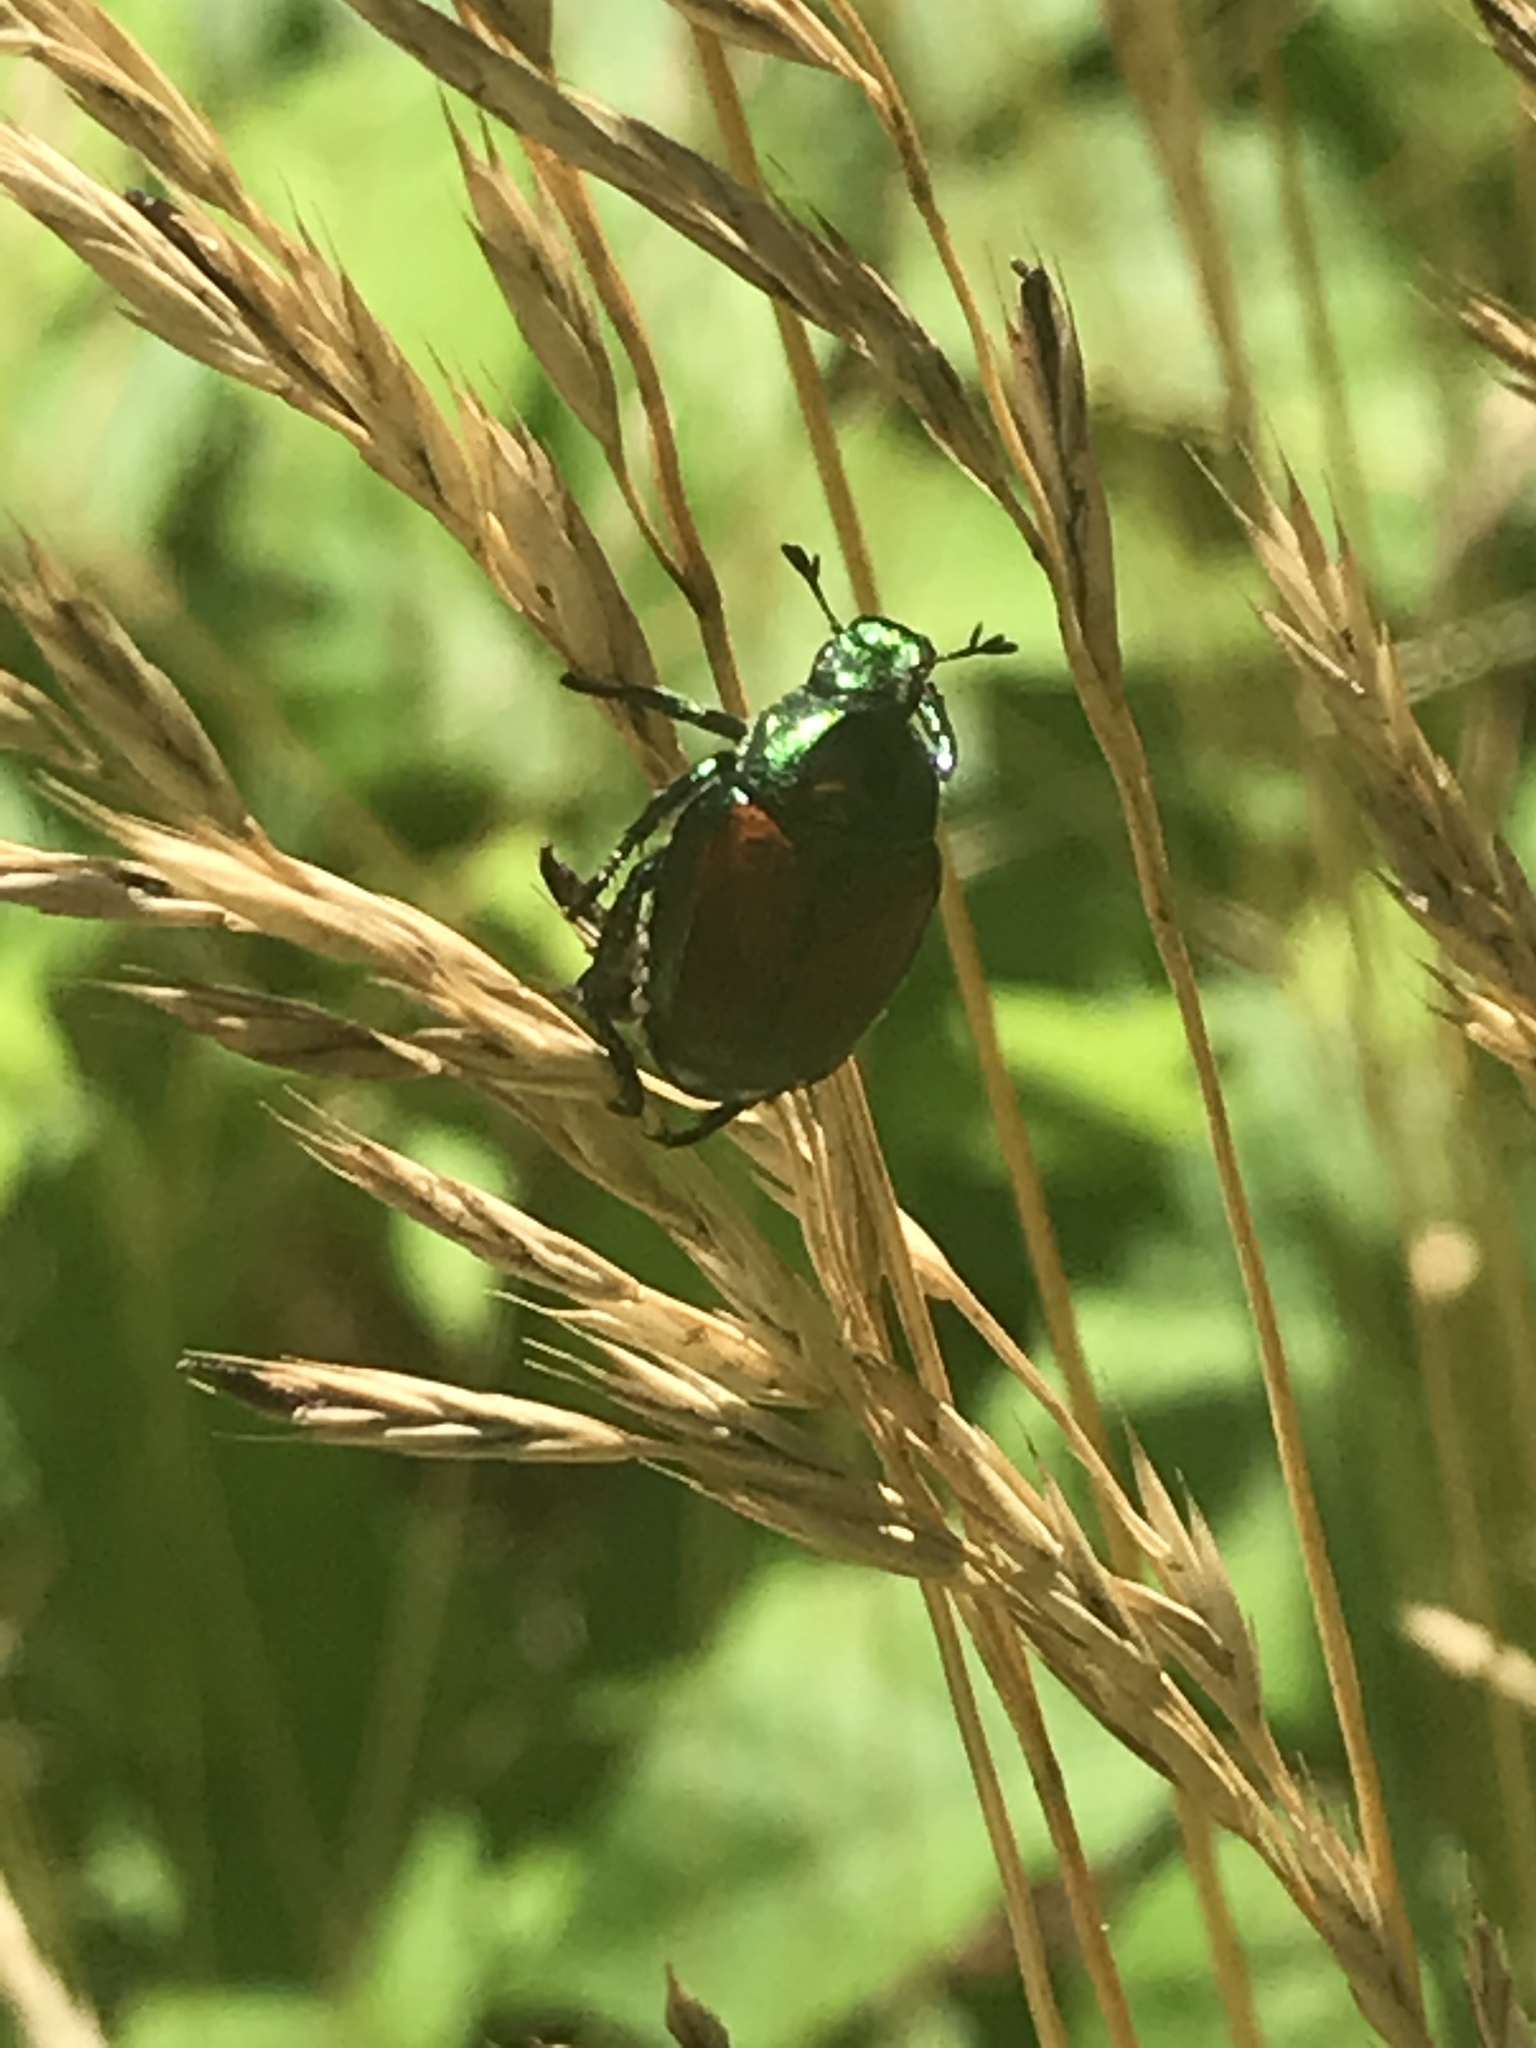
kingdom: Animalia
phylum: Arthropoda
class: Insecta
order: Coleoptera
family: Scarabaeidae
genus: Popillia
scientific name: Popillia japonica
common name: Japanese beetle
